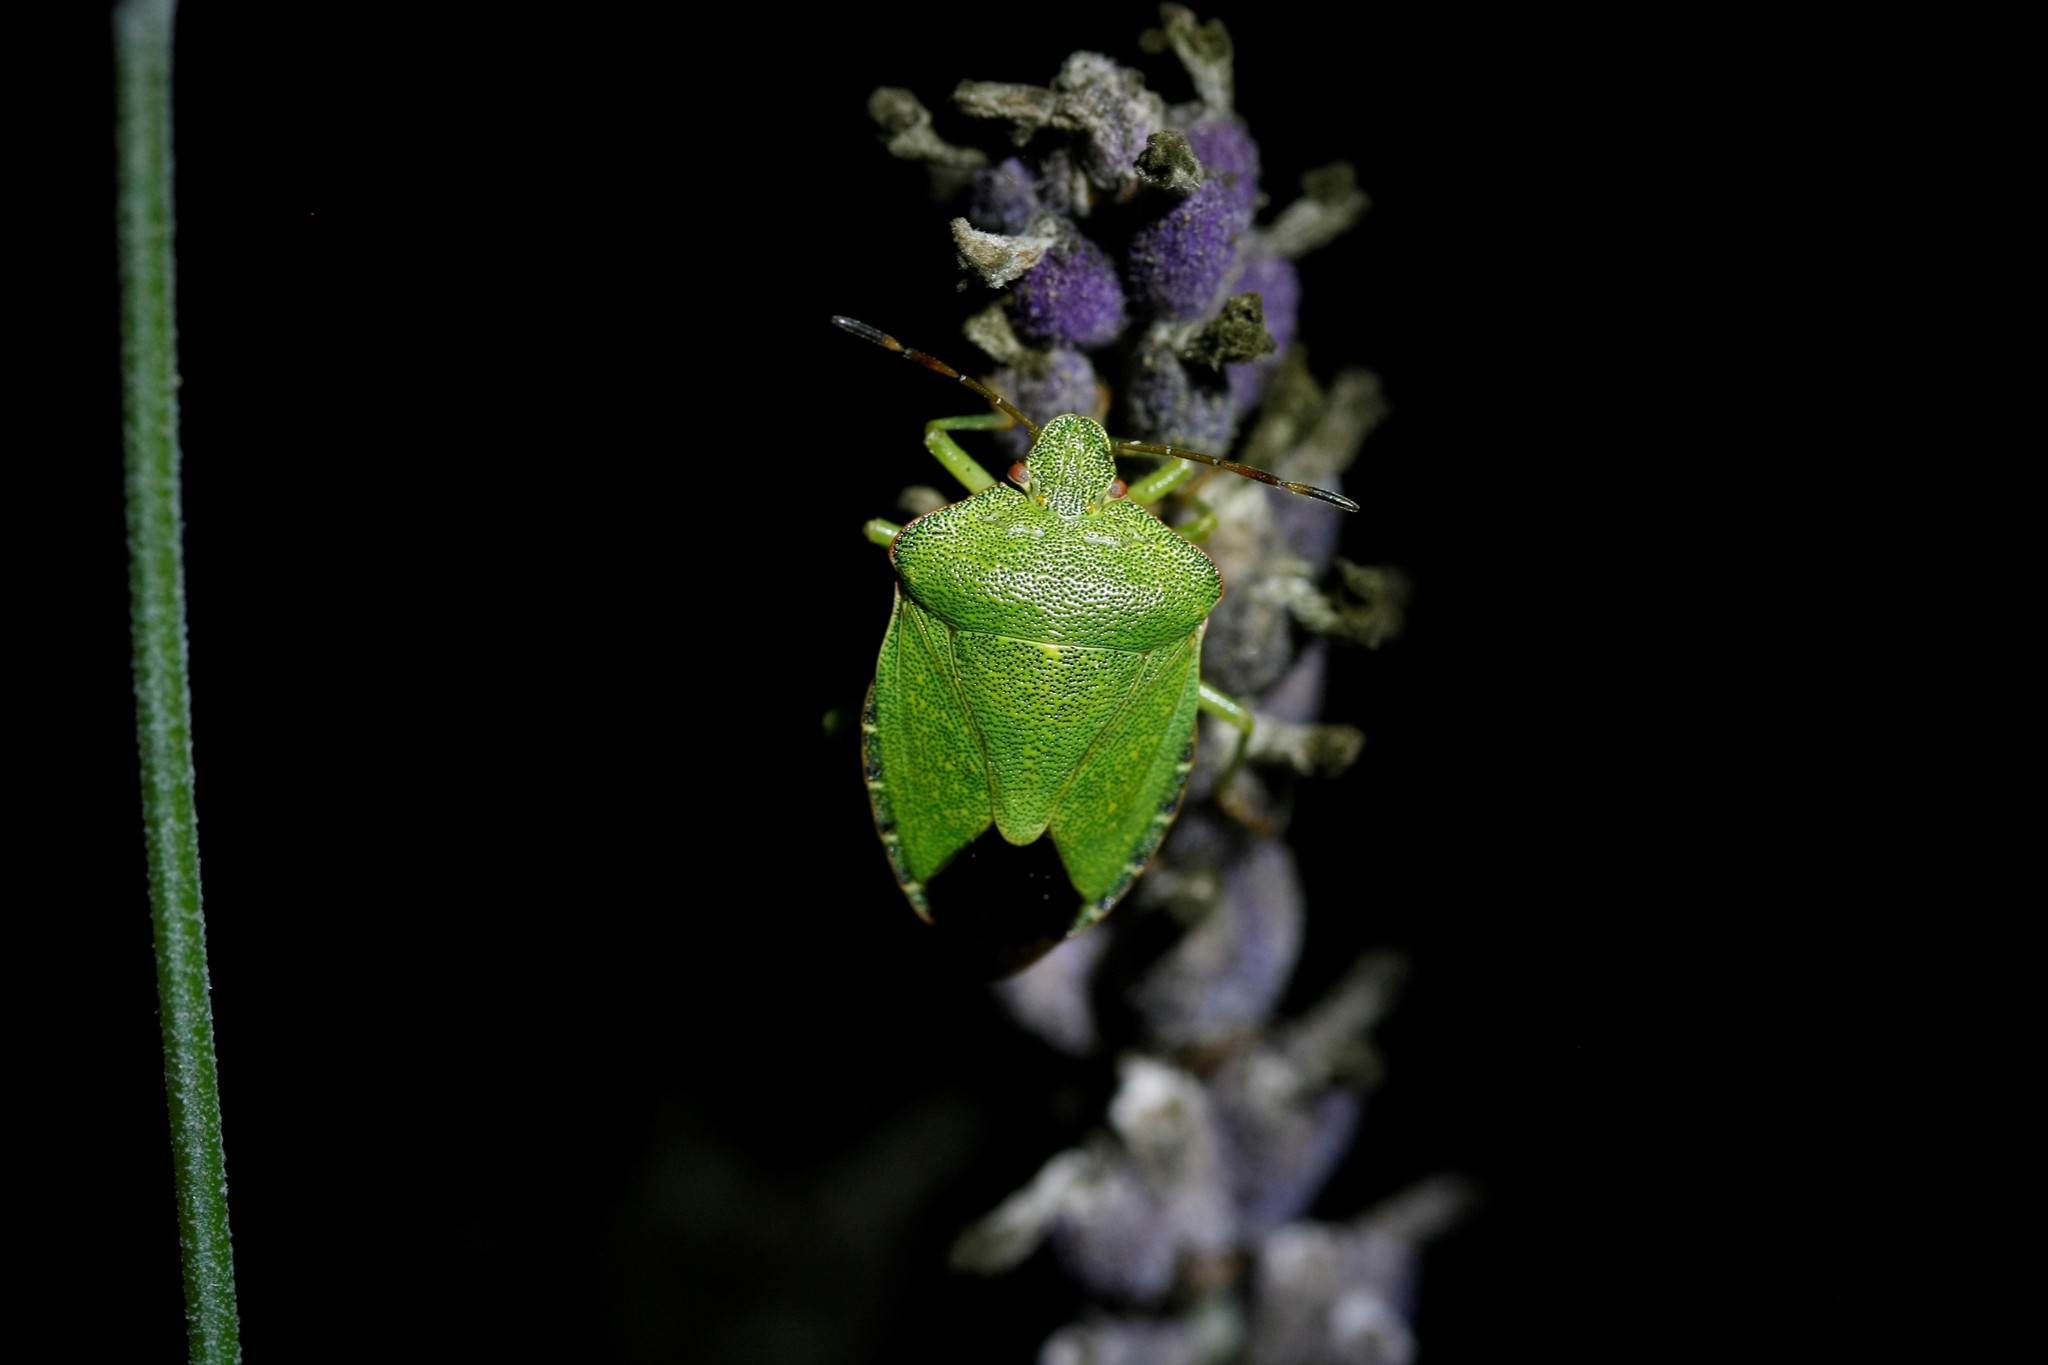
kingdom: Animalia
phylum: Arthropoda
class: Insecta
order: Hemiptera
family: Pentatomidae
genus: Palomena
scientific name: Palomena prasina
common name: Green shieldbug
